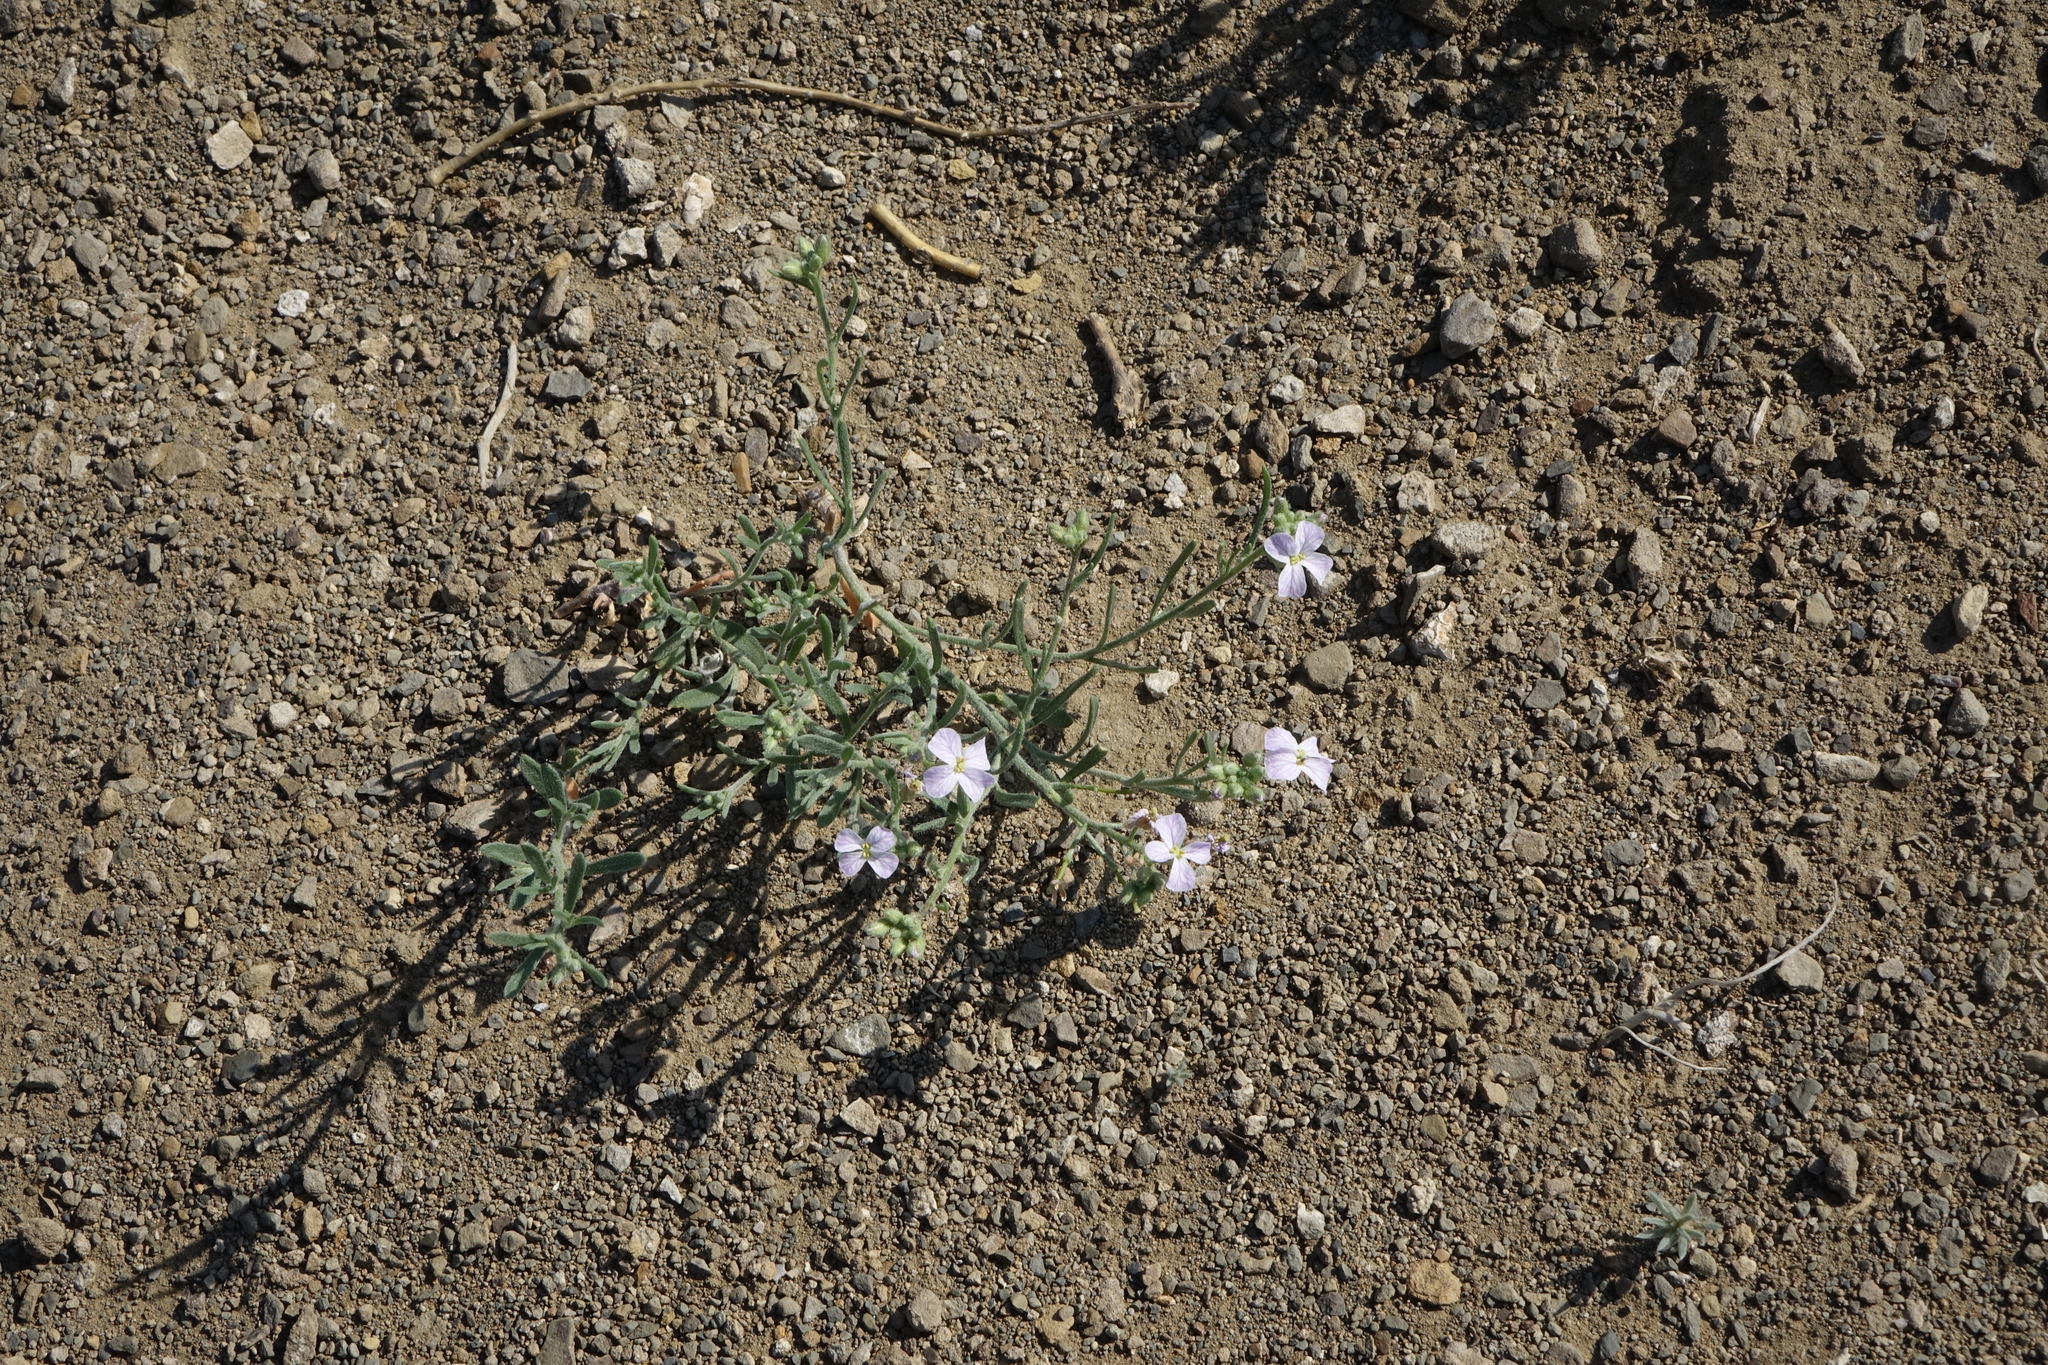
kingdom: Plantae
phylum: Tracheophyta
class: Magnoliopsida
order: Brassicales
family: Brassicaceae
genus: Dontostemon
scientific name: Dontostemon perennis
